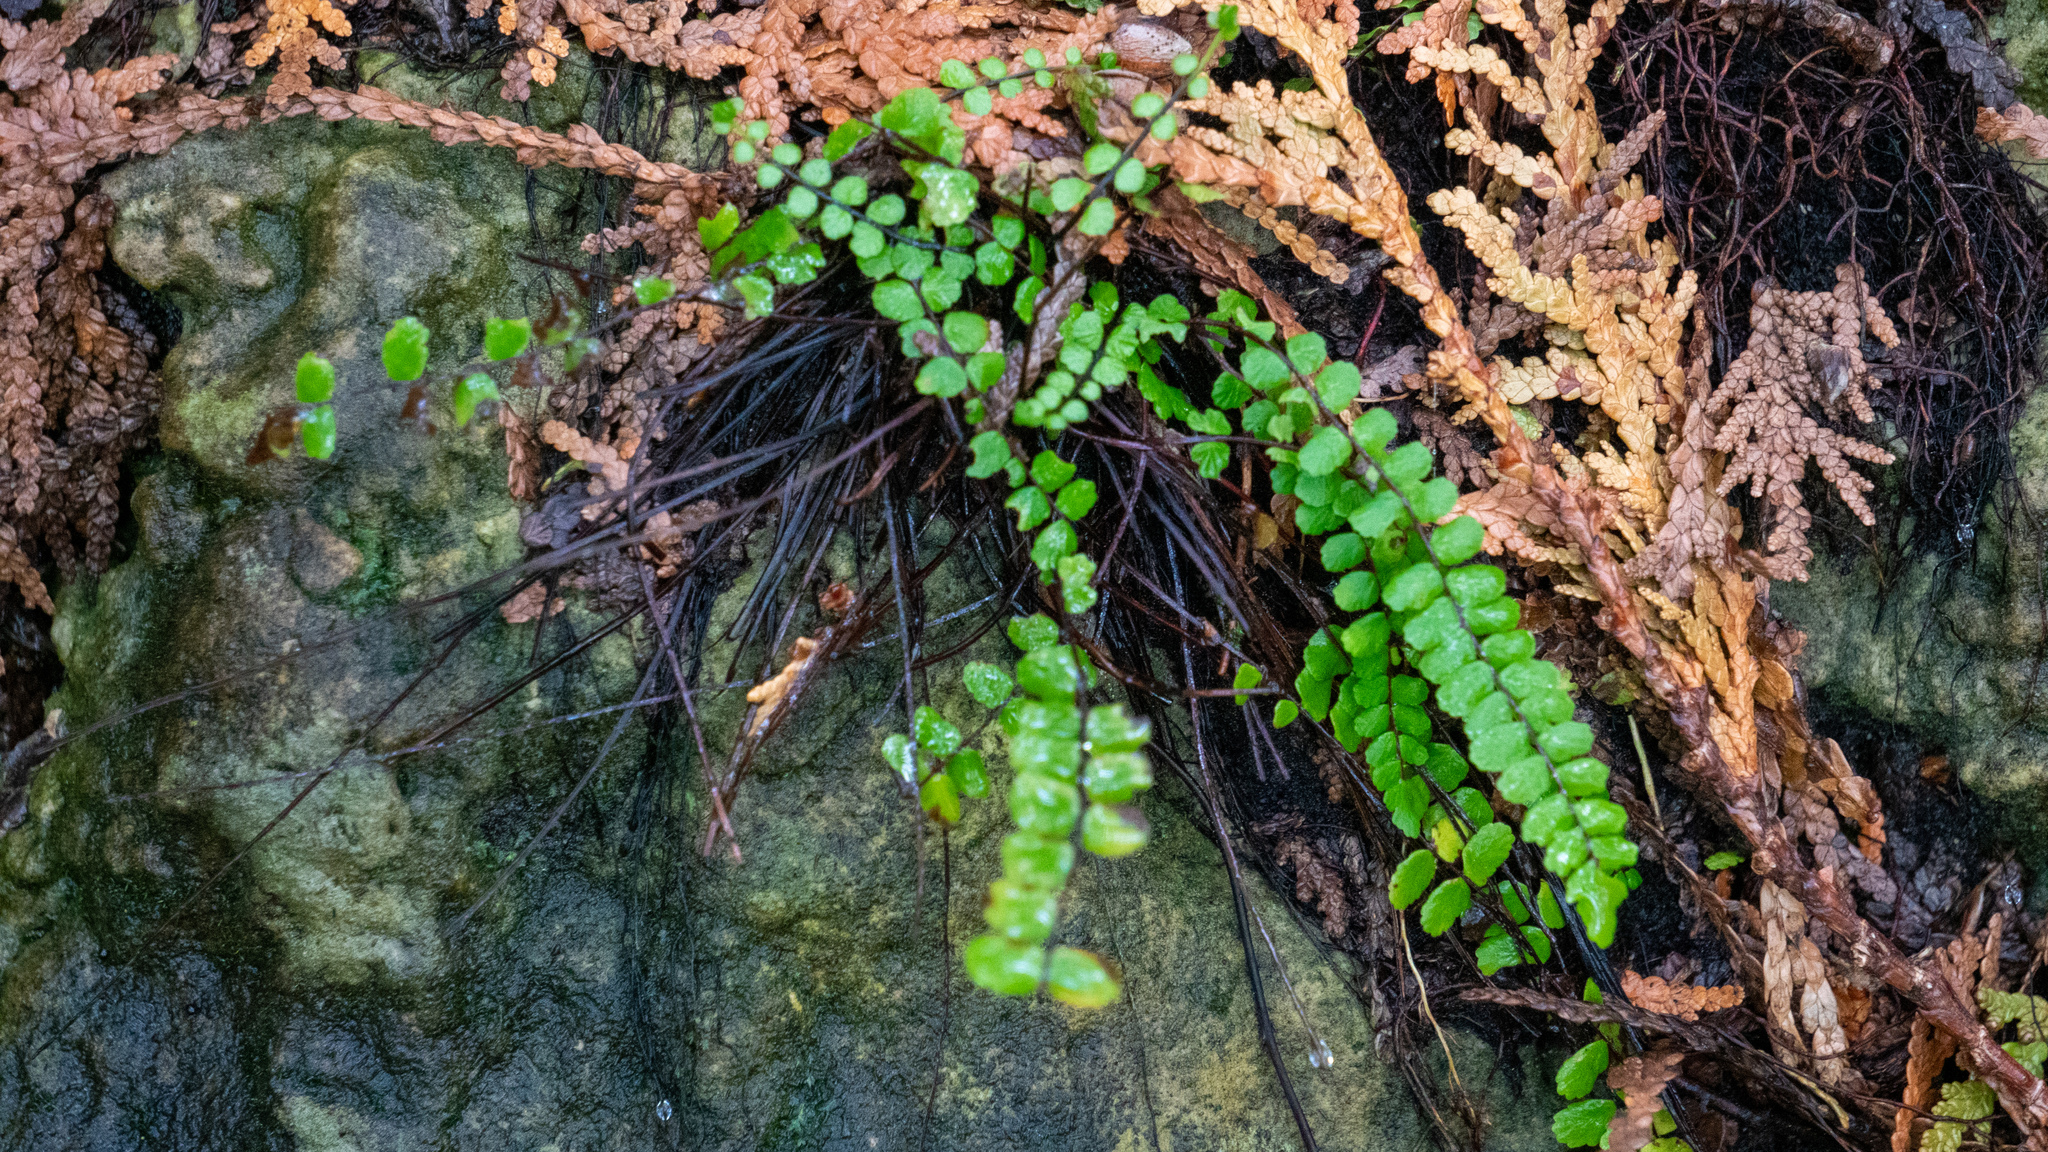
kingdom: Plantae
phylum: Tracheophyta
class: Polypodiopsida
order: Polypodiales
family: Aspleniaceae
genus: Asplenium
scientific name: Asplenium trichomanes
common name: Maidenhair spleenwort
